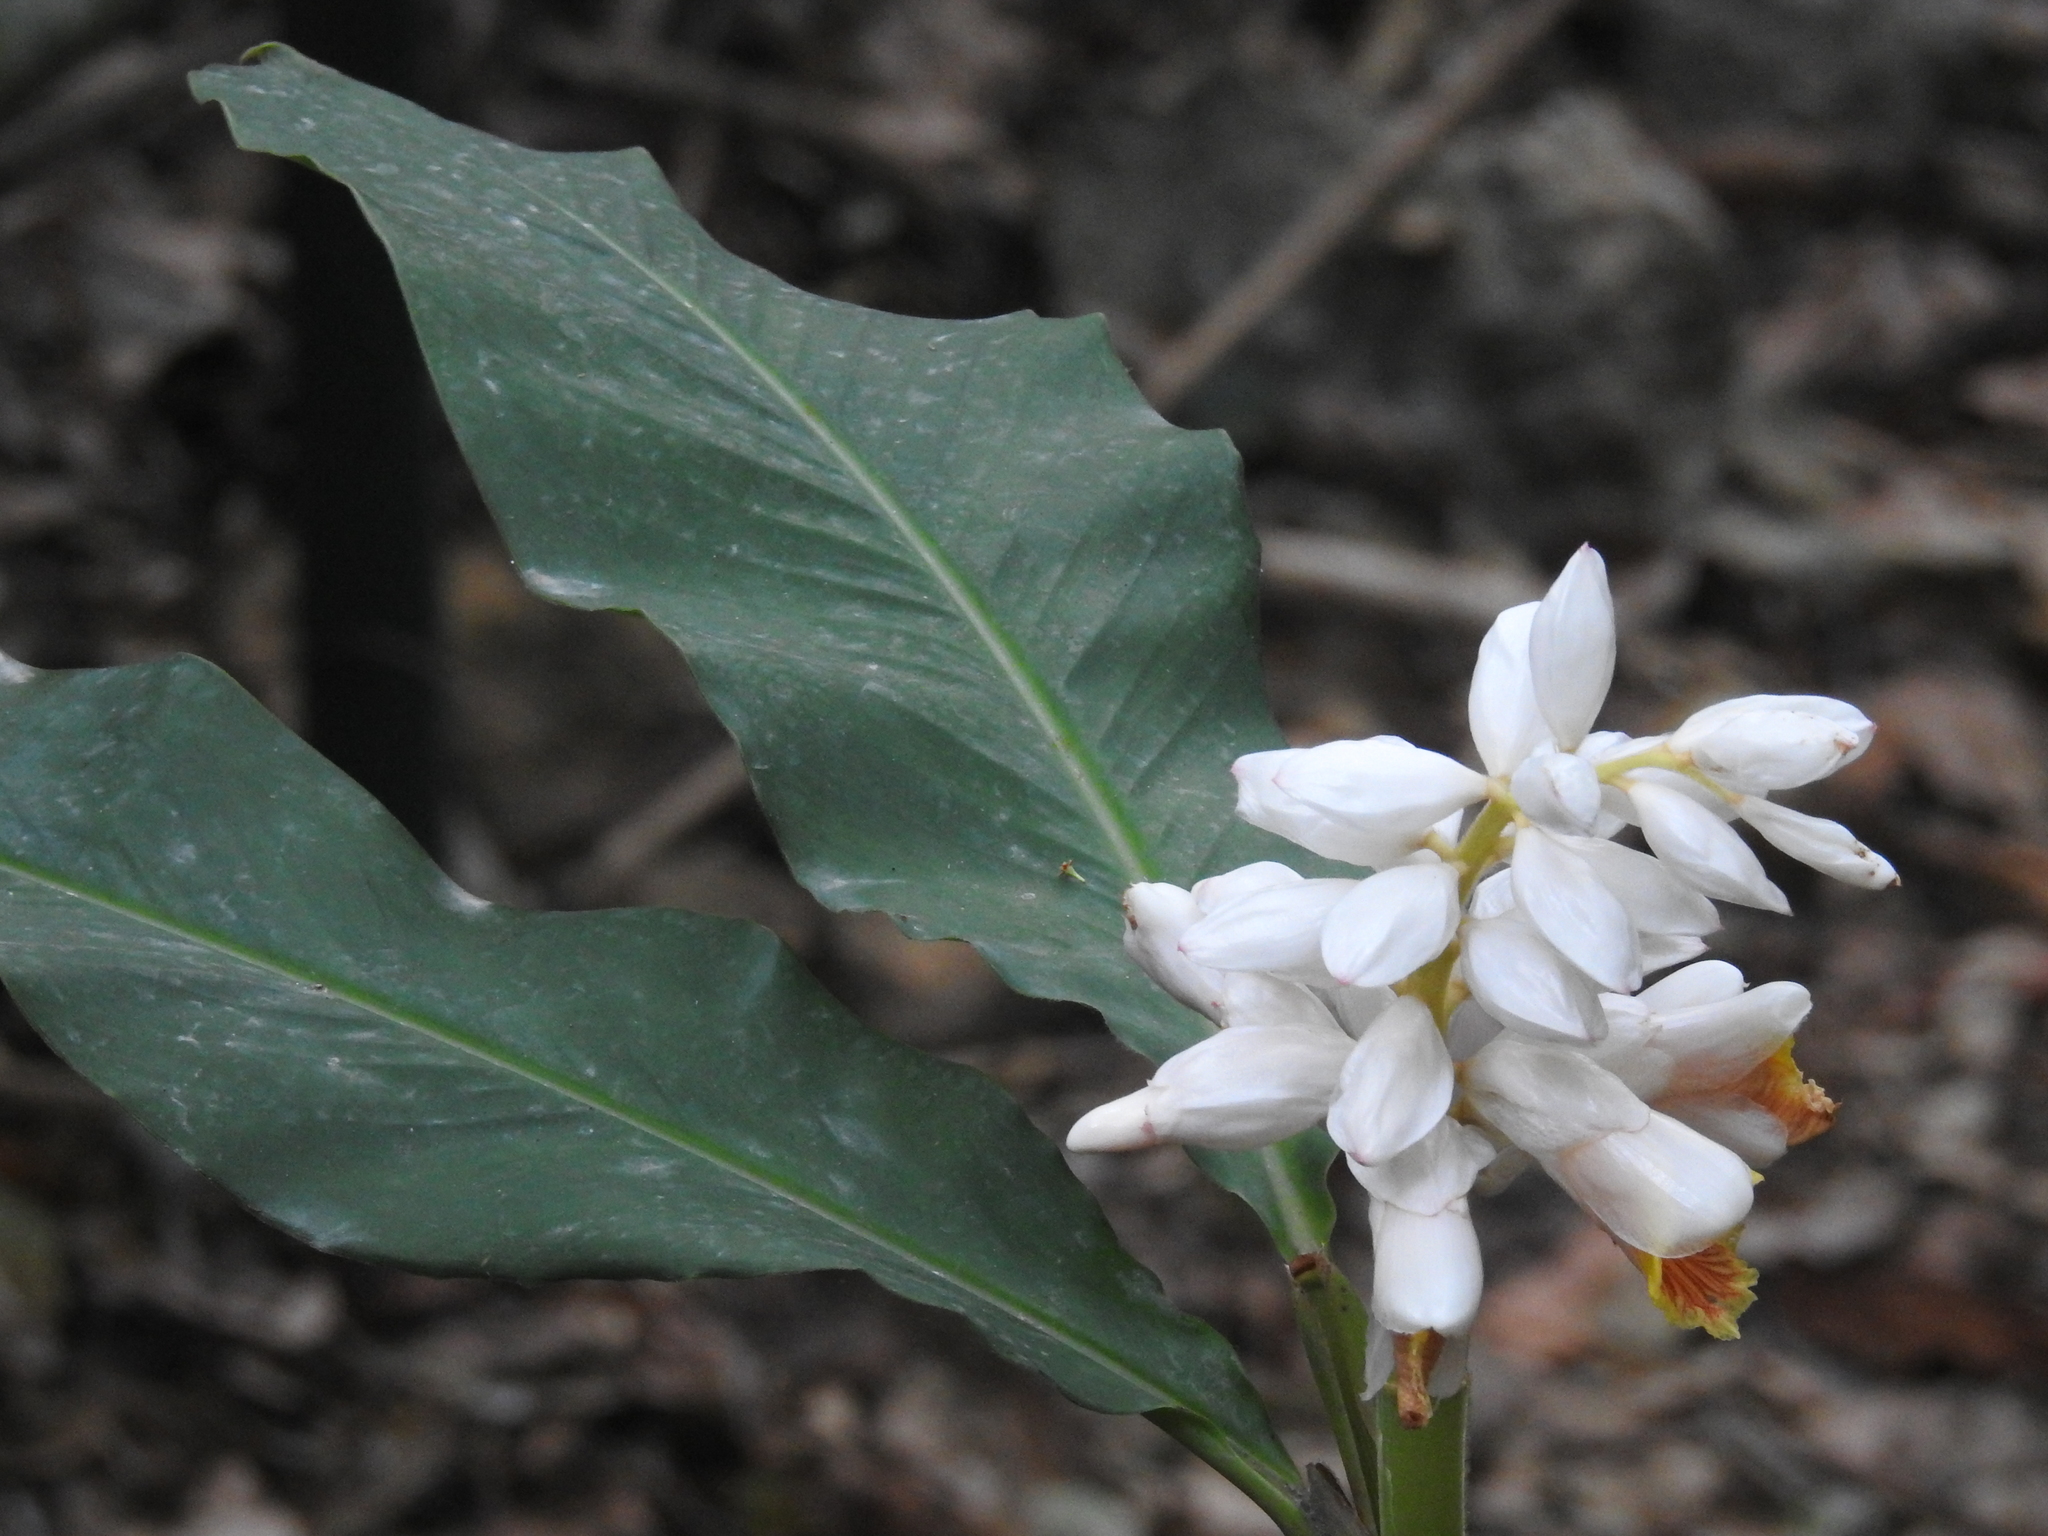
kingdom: Plantae
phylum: Tracheophyta
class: Liliopsida
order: Zingiberales
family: Zingiberaceae
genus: Alpinia
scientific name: Alpinia hainanensis
